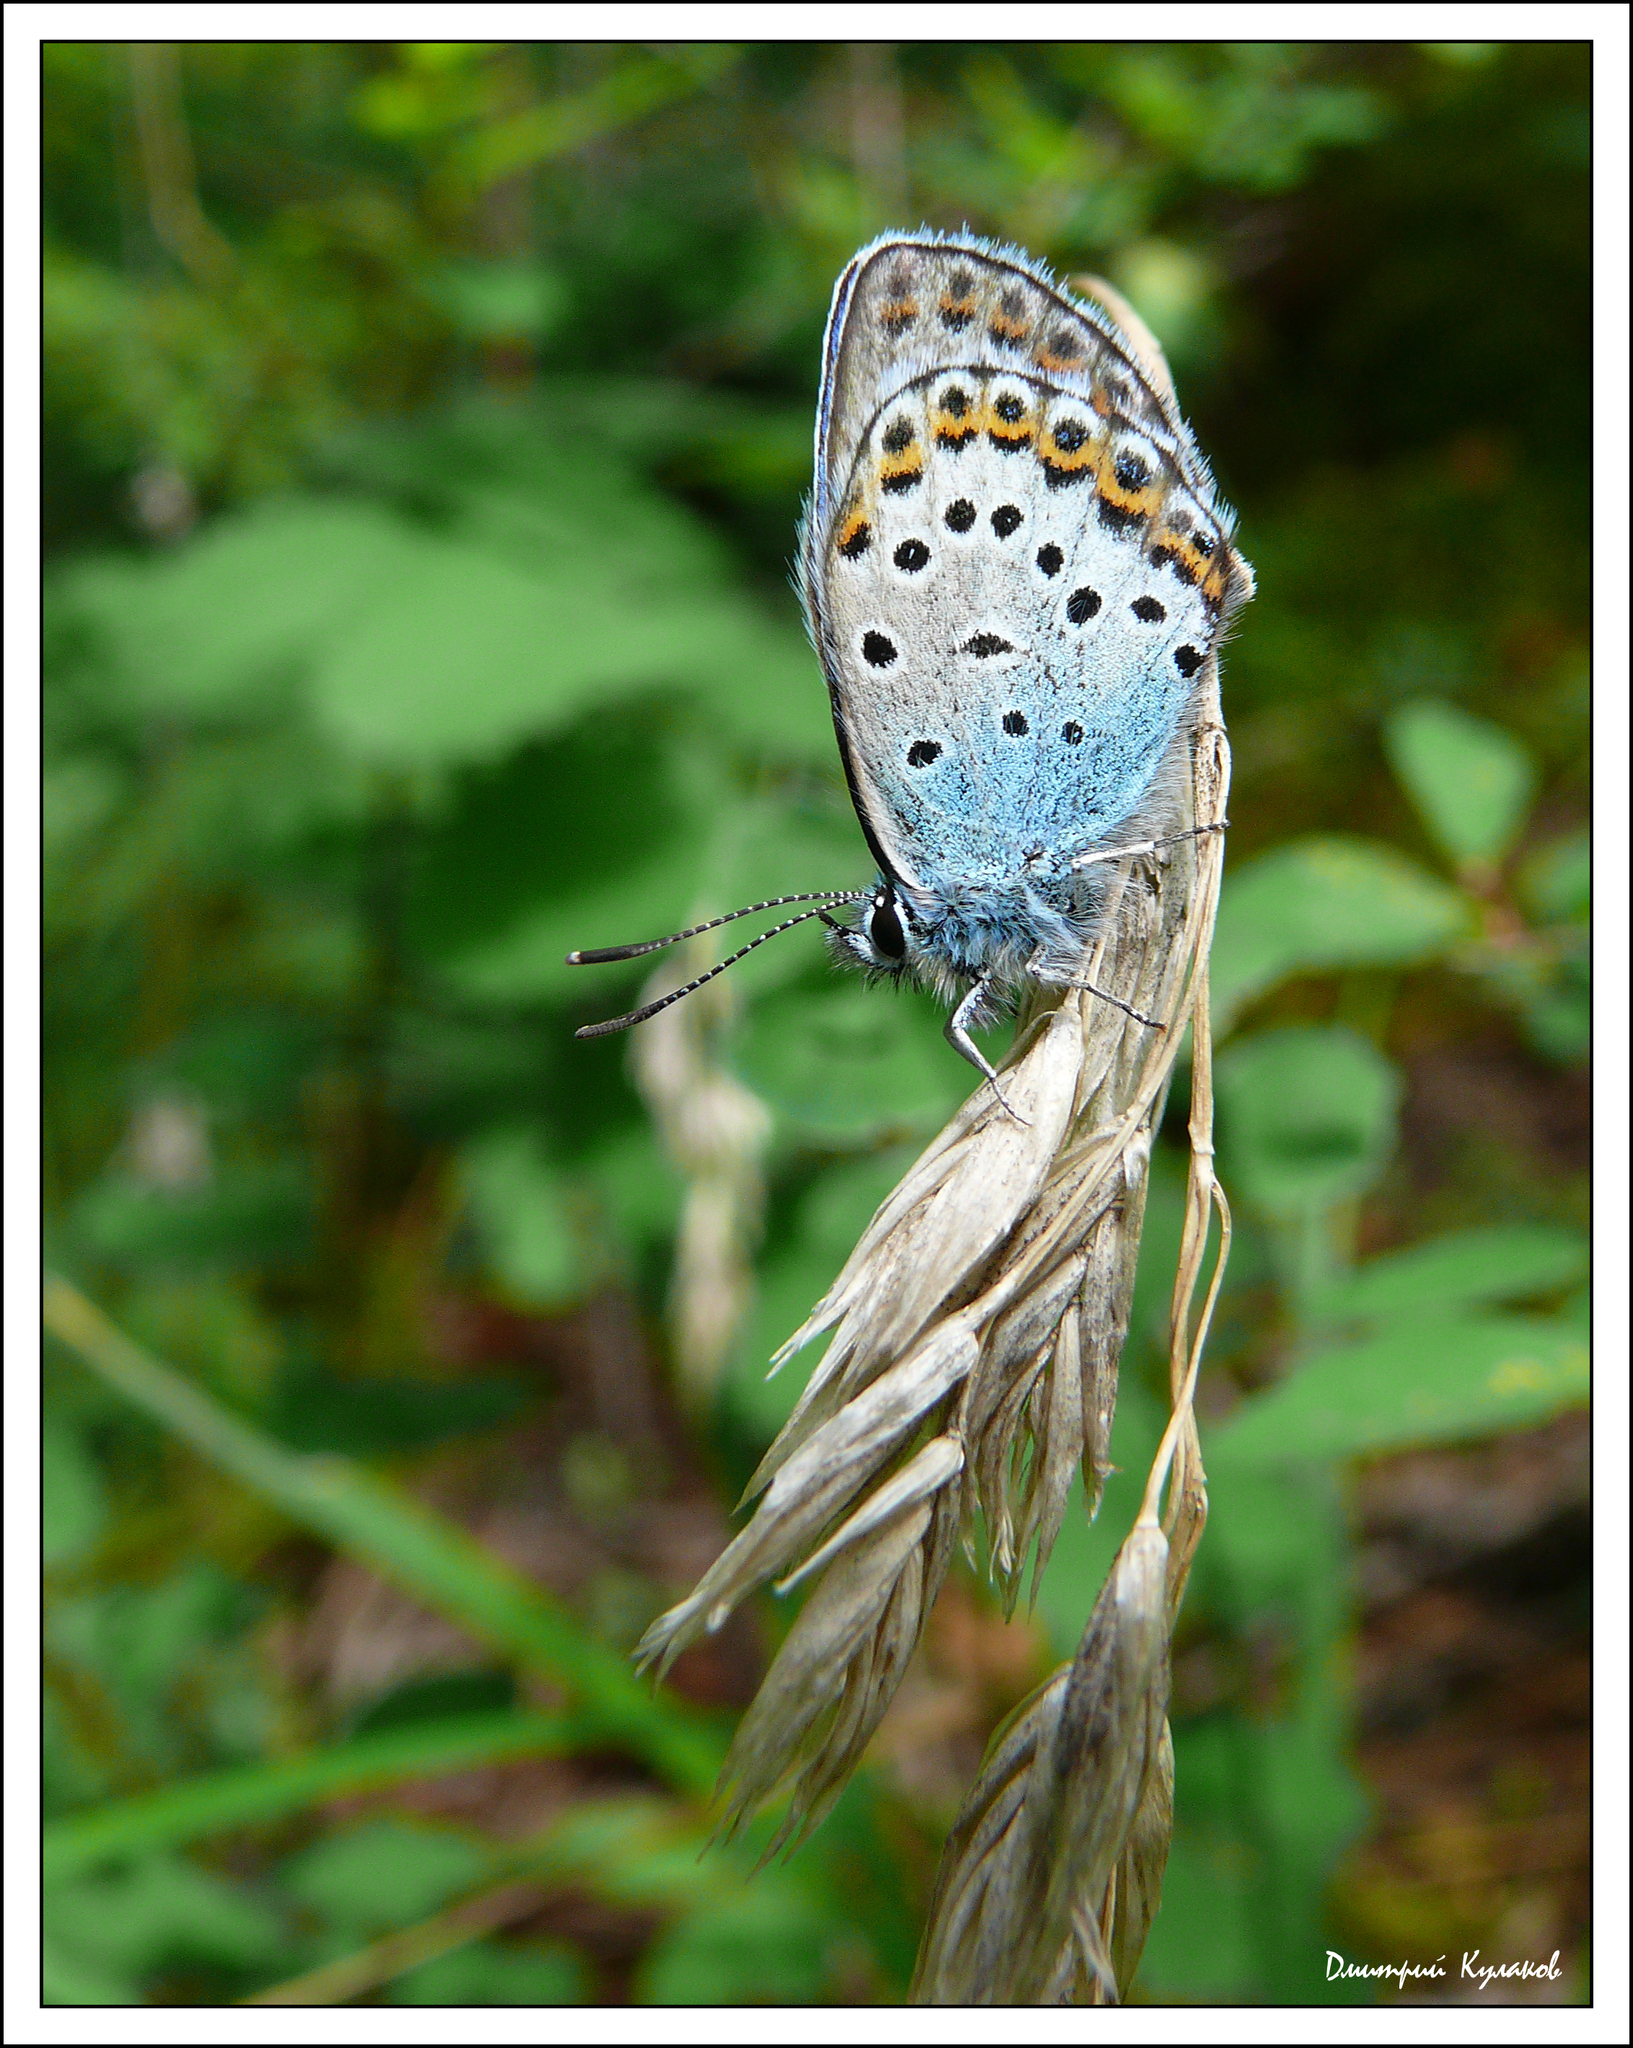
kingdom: Animalia
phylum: Arthropoda
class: Insecta
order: Lepidoptera
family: Lycaenidae
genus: Plebejus
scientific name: Plebejus argyrognomon
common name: Reverdin's blue
